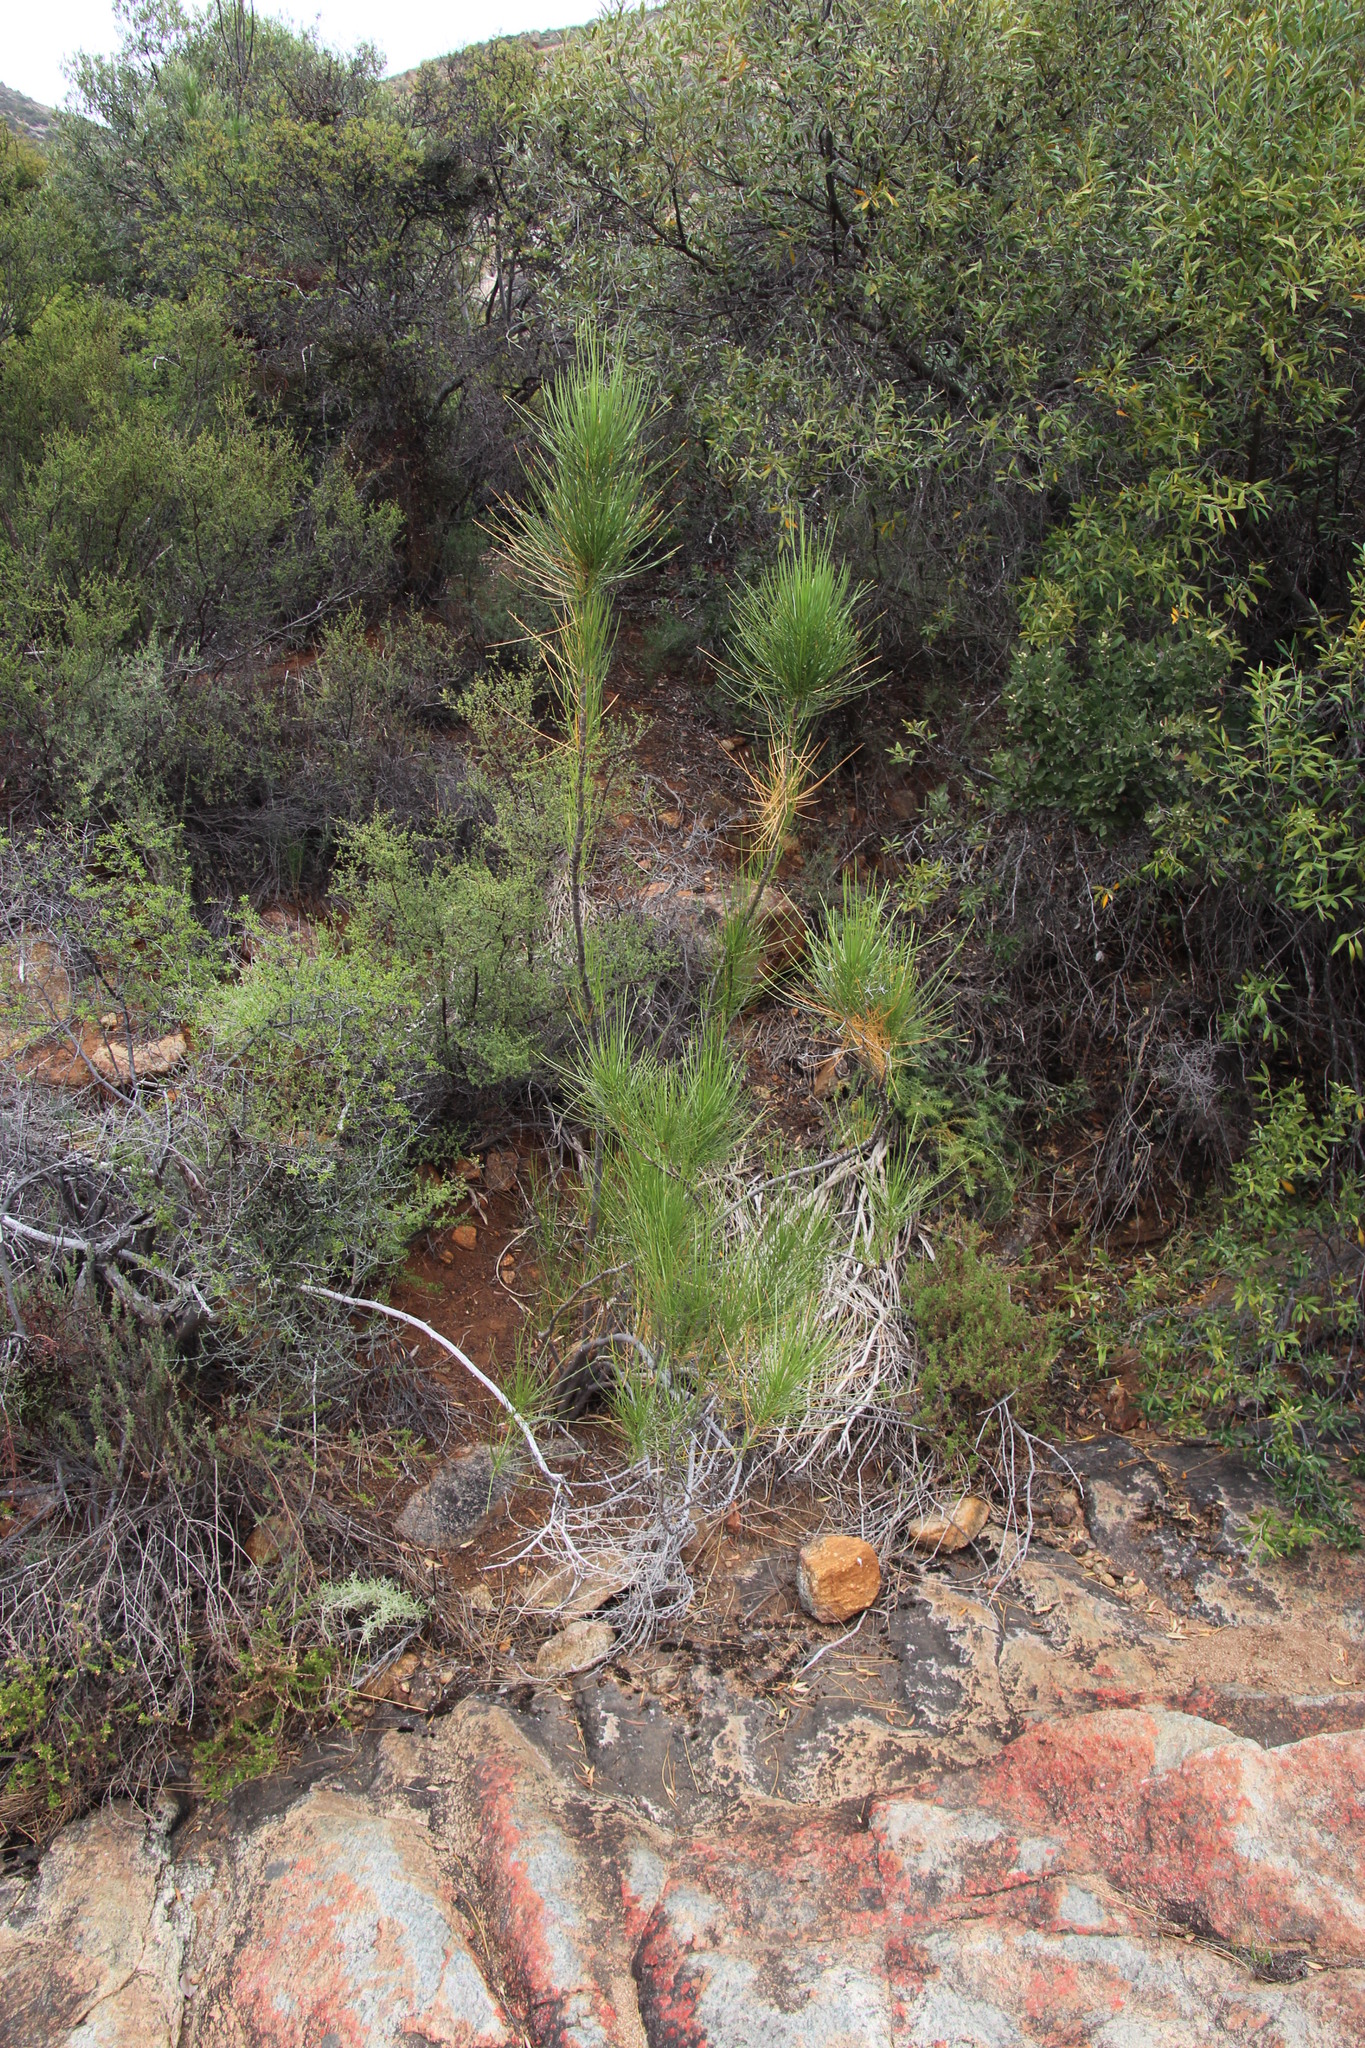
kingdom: Plantae
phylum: Tracheophyta
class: Magnoliopsida
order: Apiales
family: Apiaceae
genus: Anginon
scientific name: Anginon difforme
